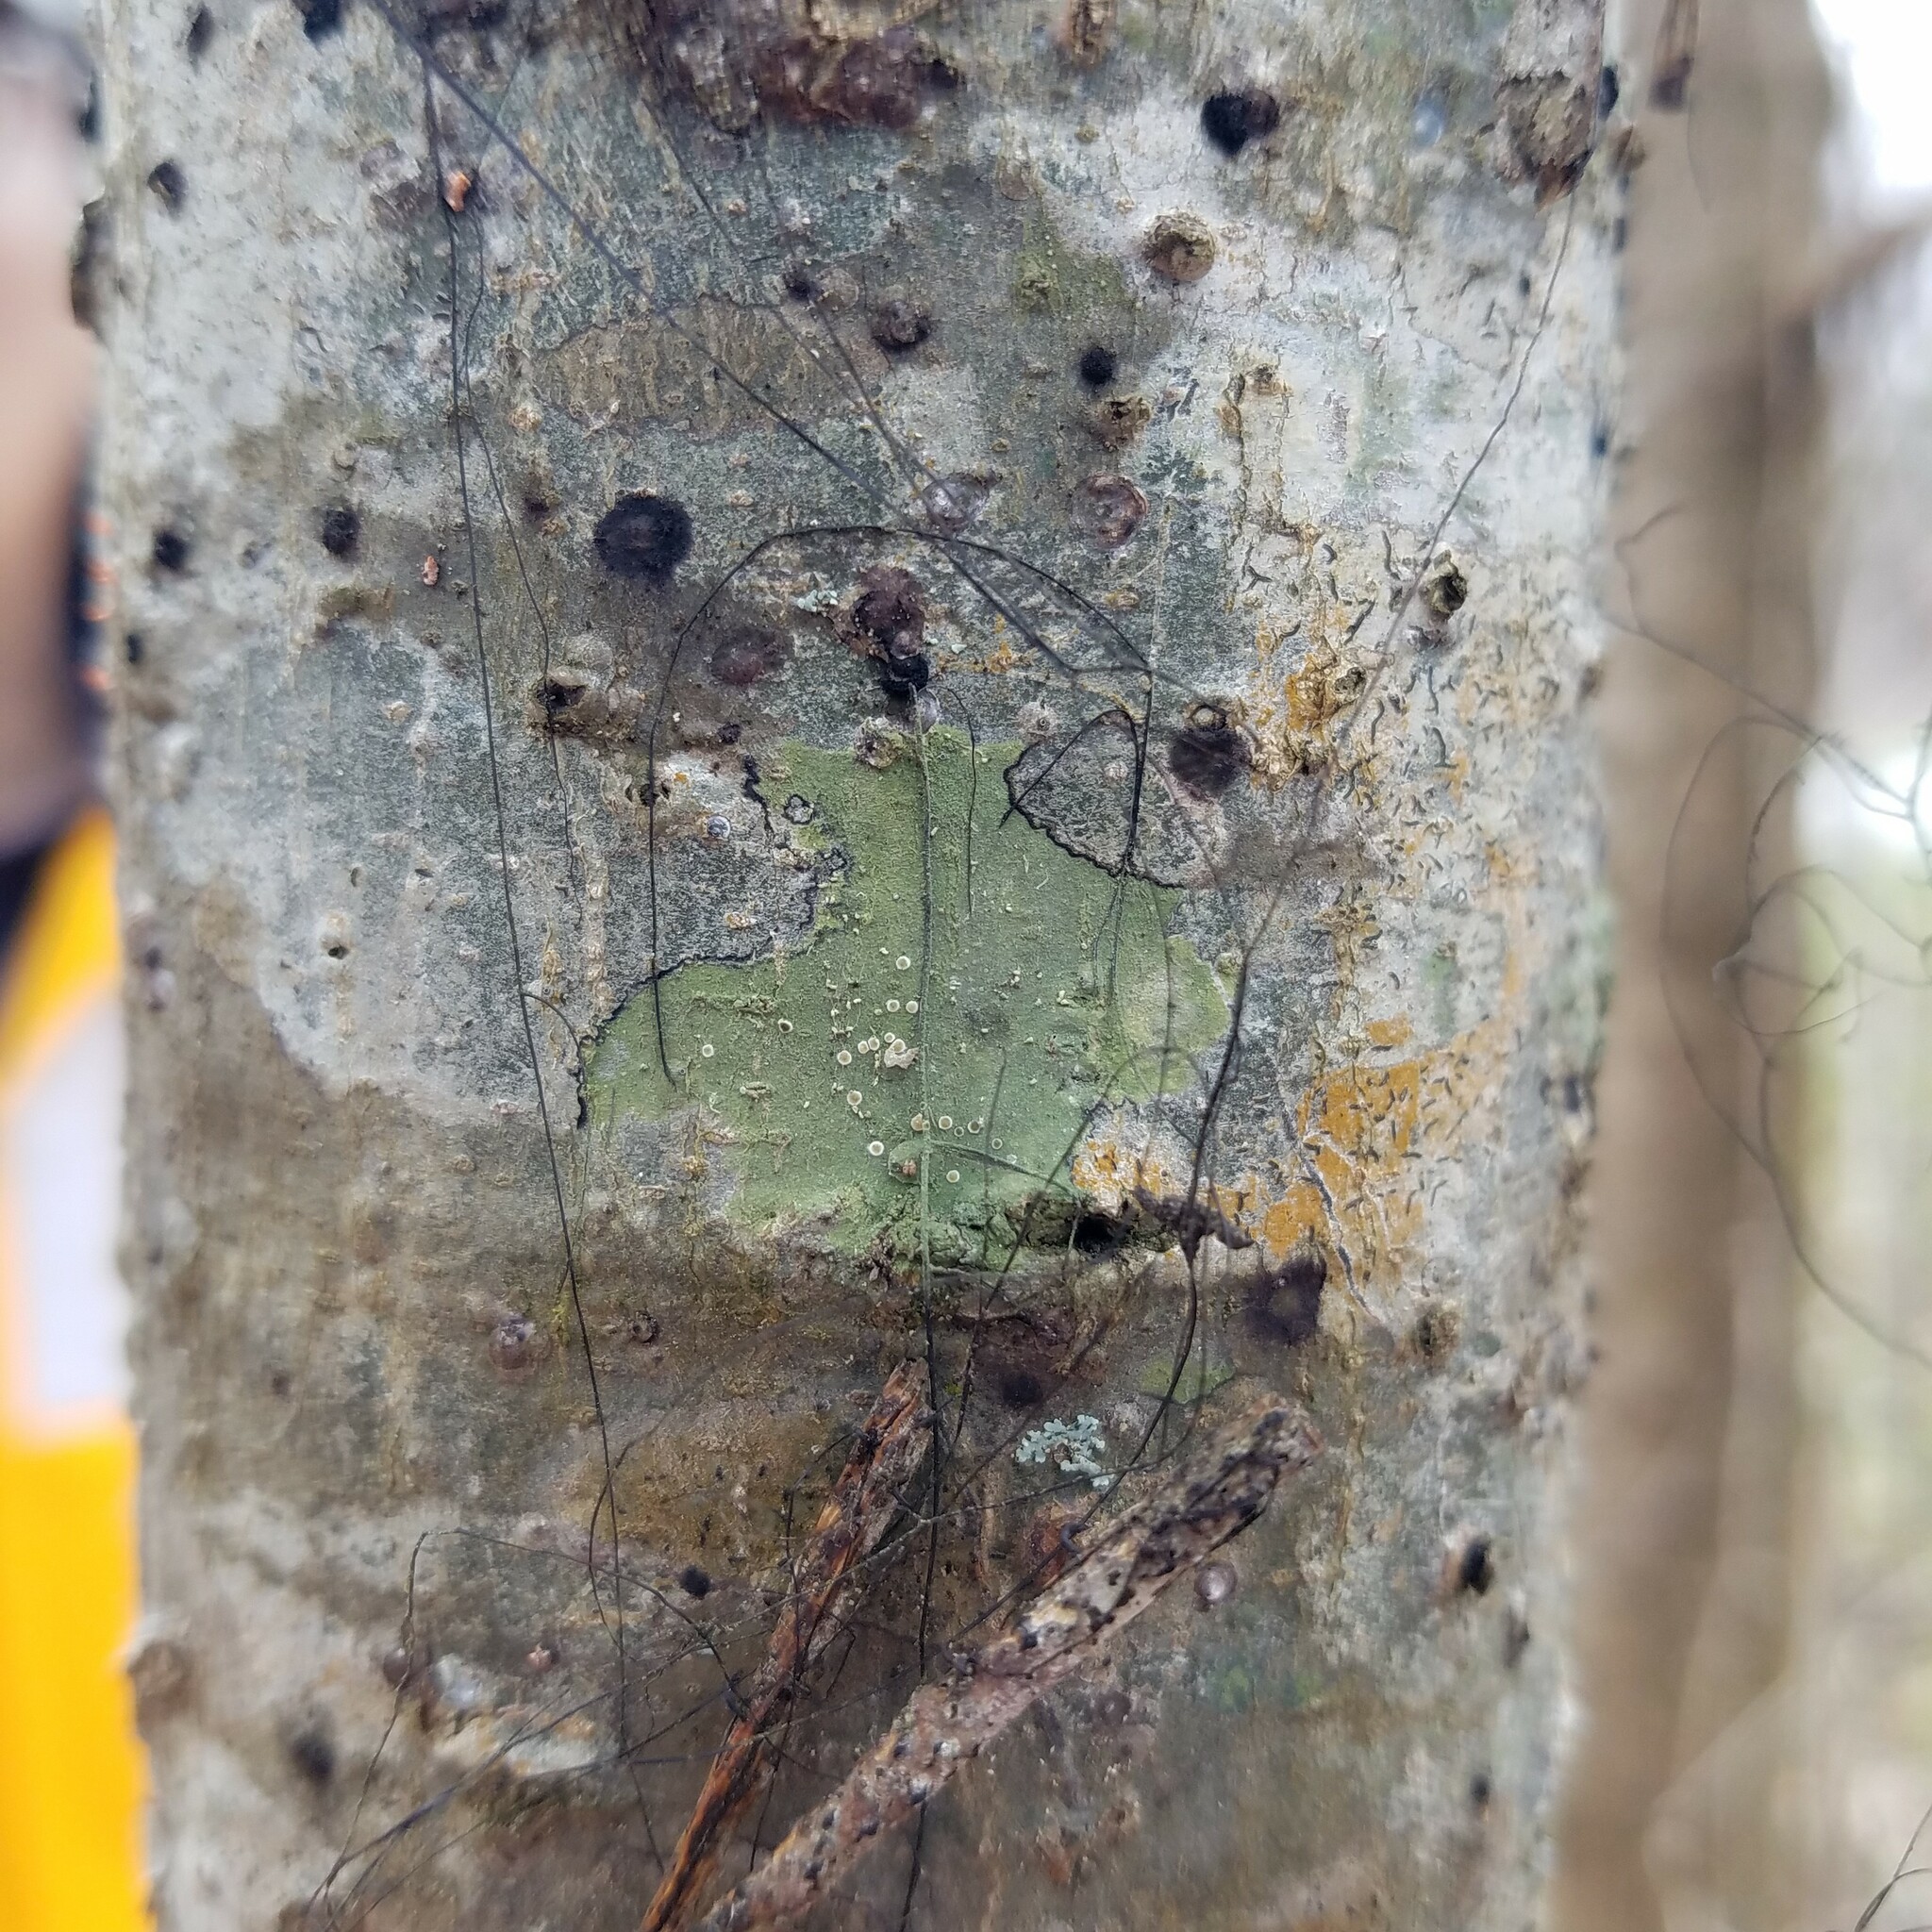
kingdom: Fungi
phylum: Ascomycota
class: Lecanoromycetes
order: Lecanorales
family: Byssolomataceae
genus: Byssoloma
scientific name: Byssoloma meadii
